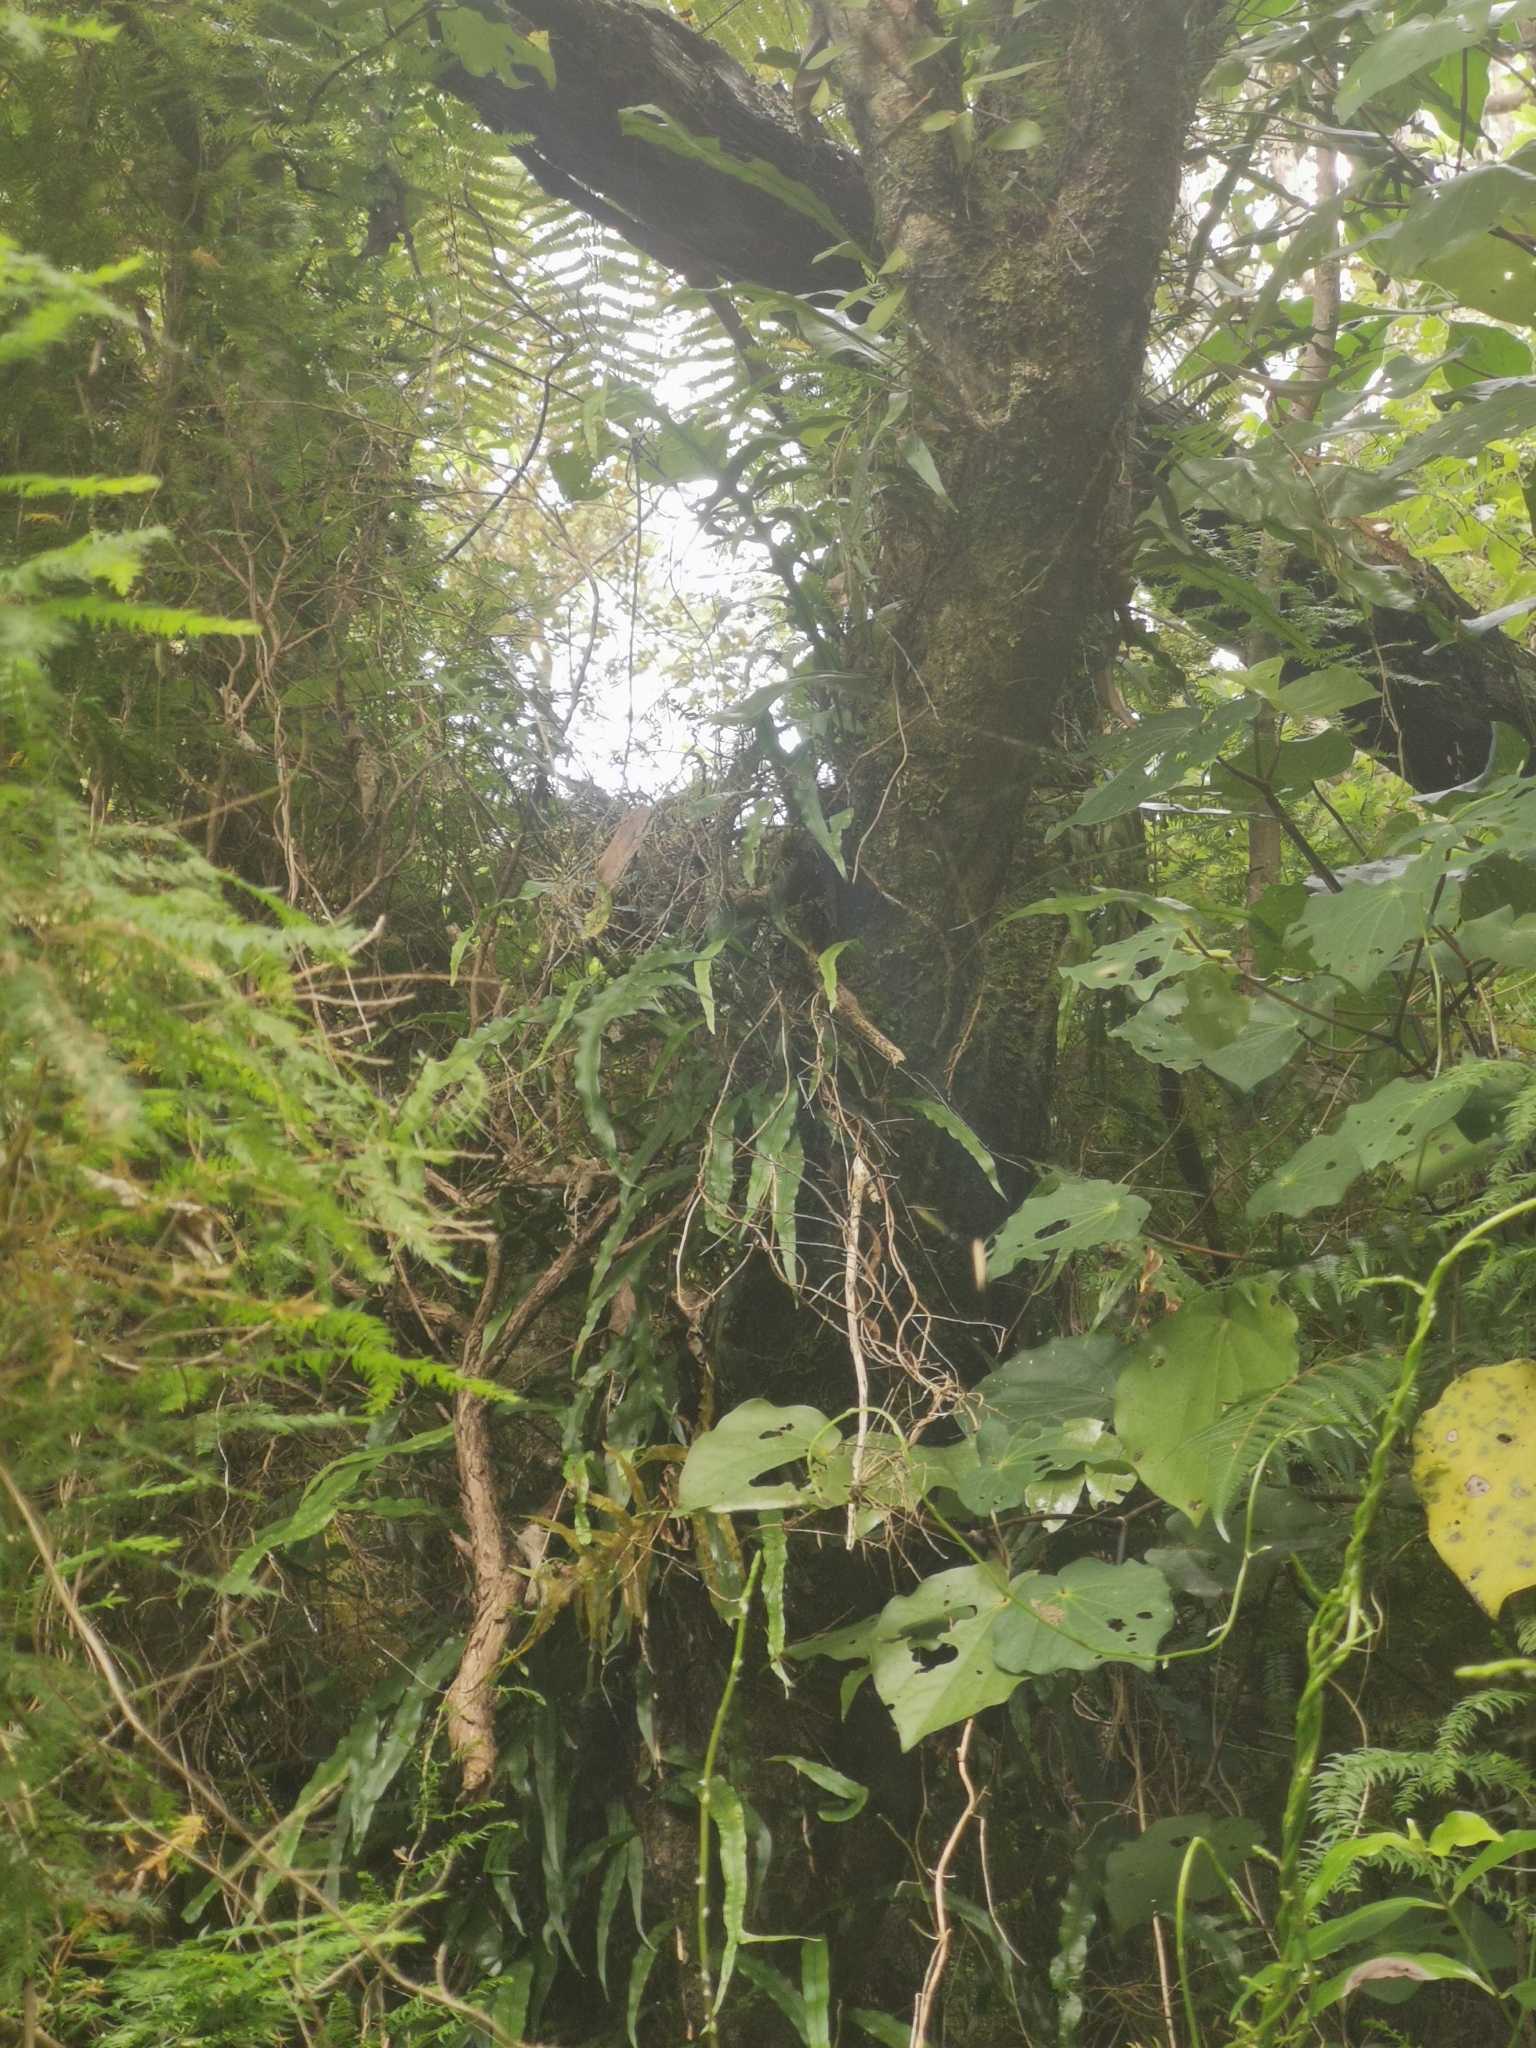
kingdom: Plantae
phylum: Tracheophyta
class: Polypodiopsida
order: Polypodiales
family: Polypodiaceae
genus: Lecanopteris
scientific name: Lecanopteris scandens
